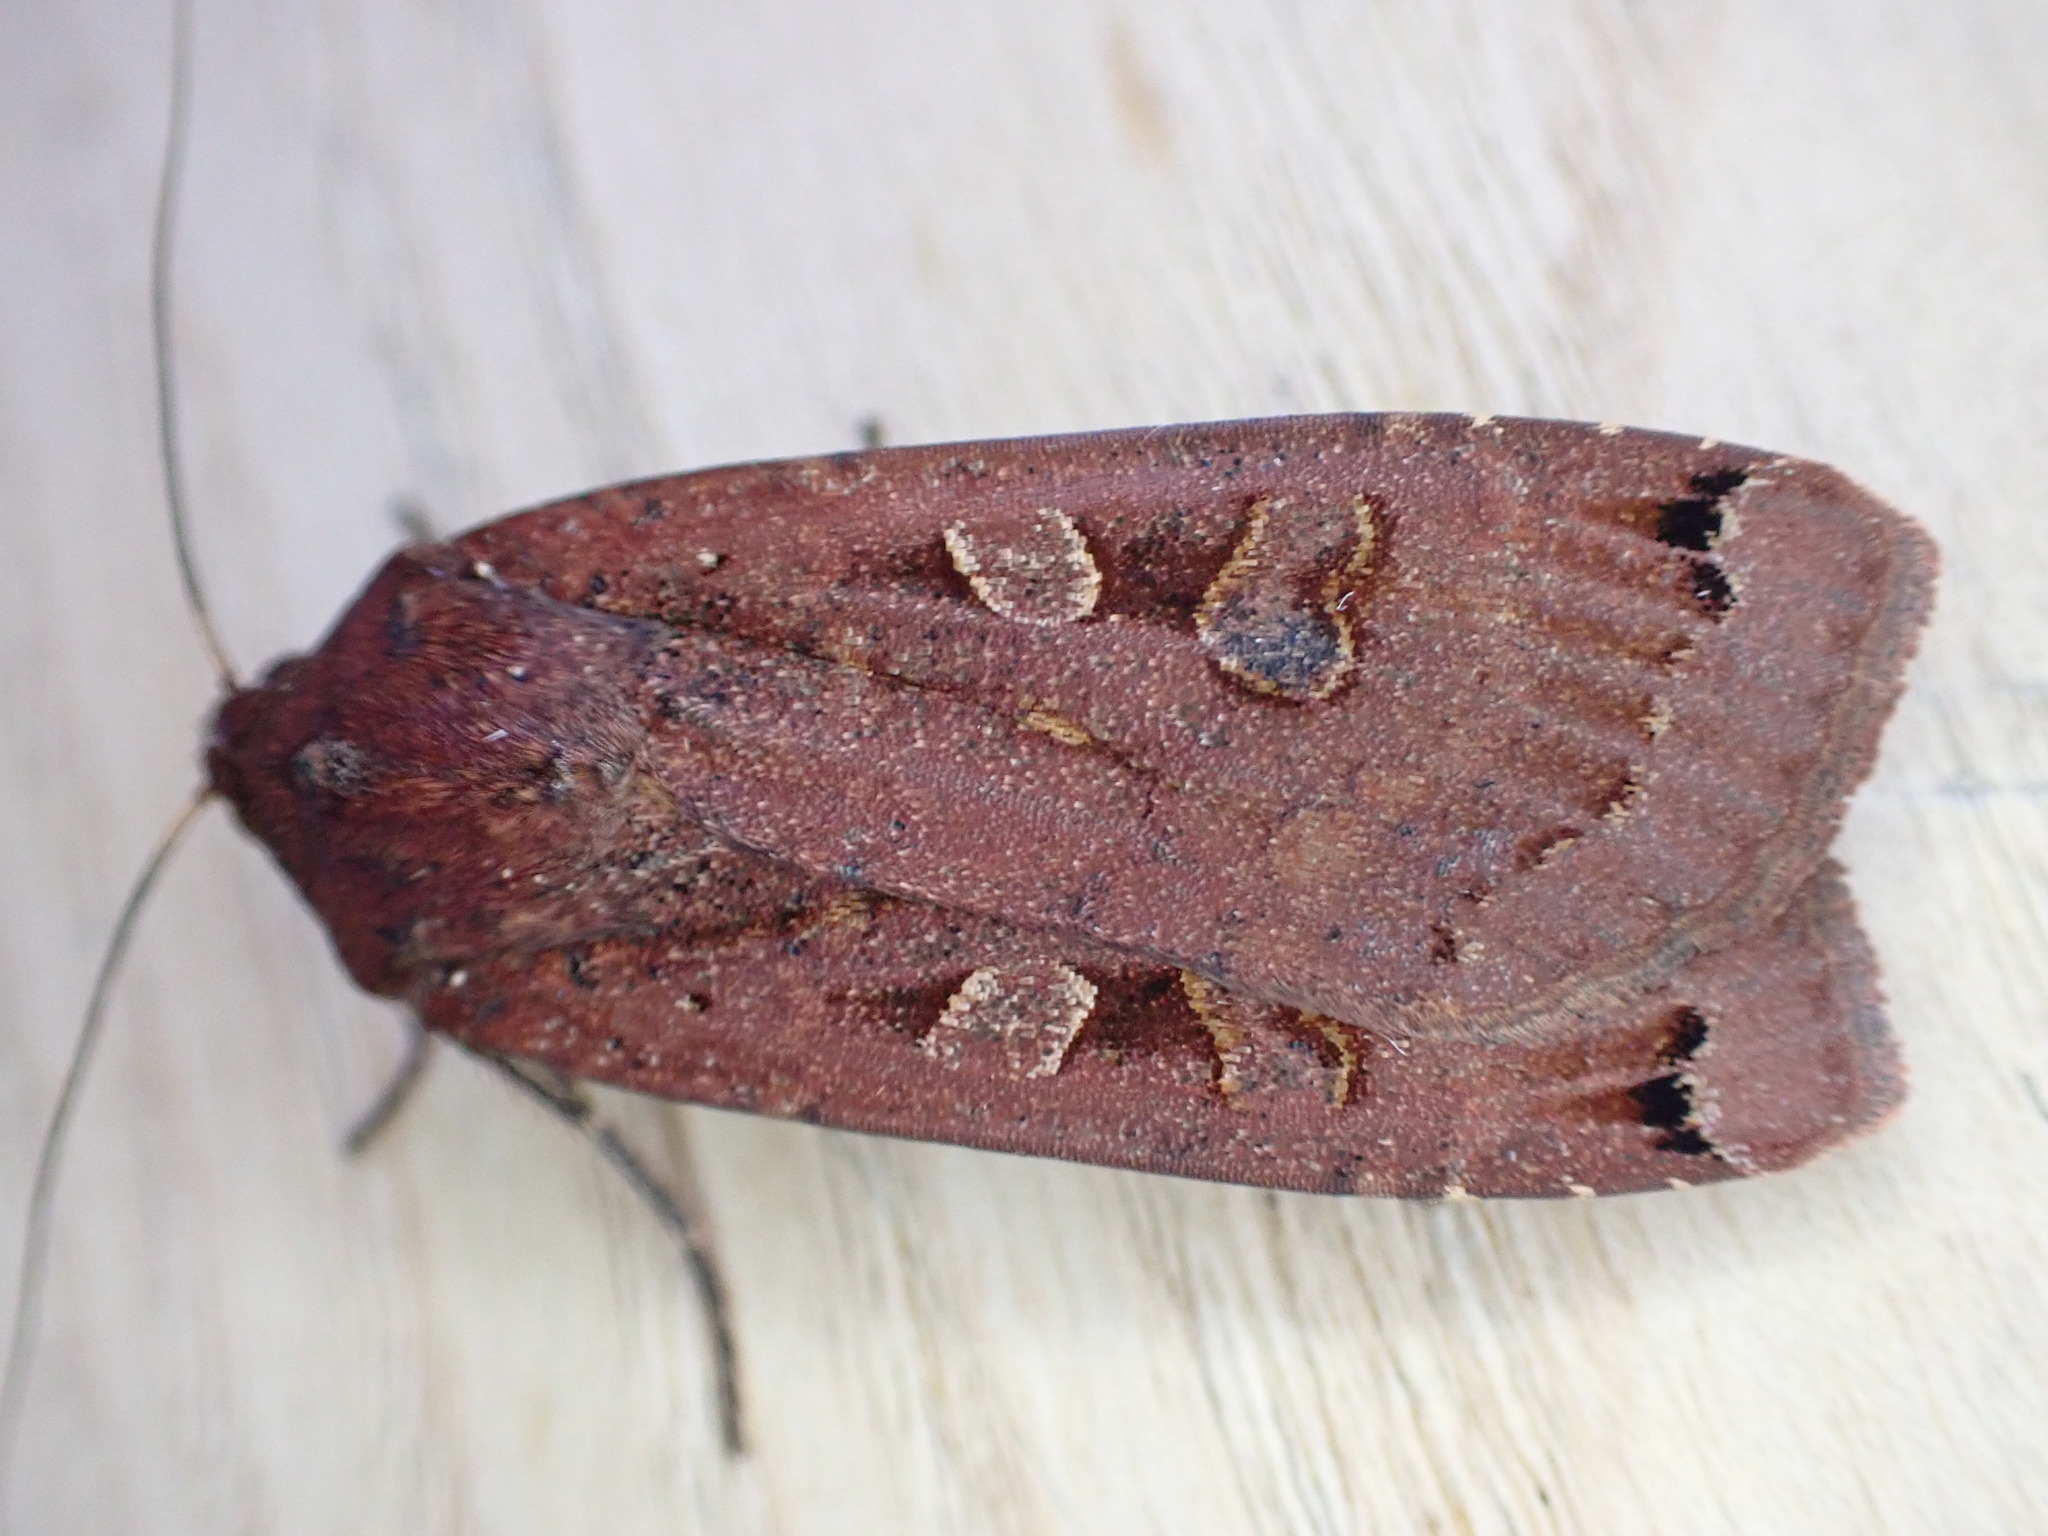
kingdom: Animalia
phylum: Arthropoda
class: Insecta
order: Lepidoptera
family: Noctuidae
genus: Noctua
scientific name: Noctua pronuba
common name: Large yellow underwing
